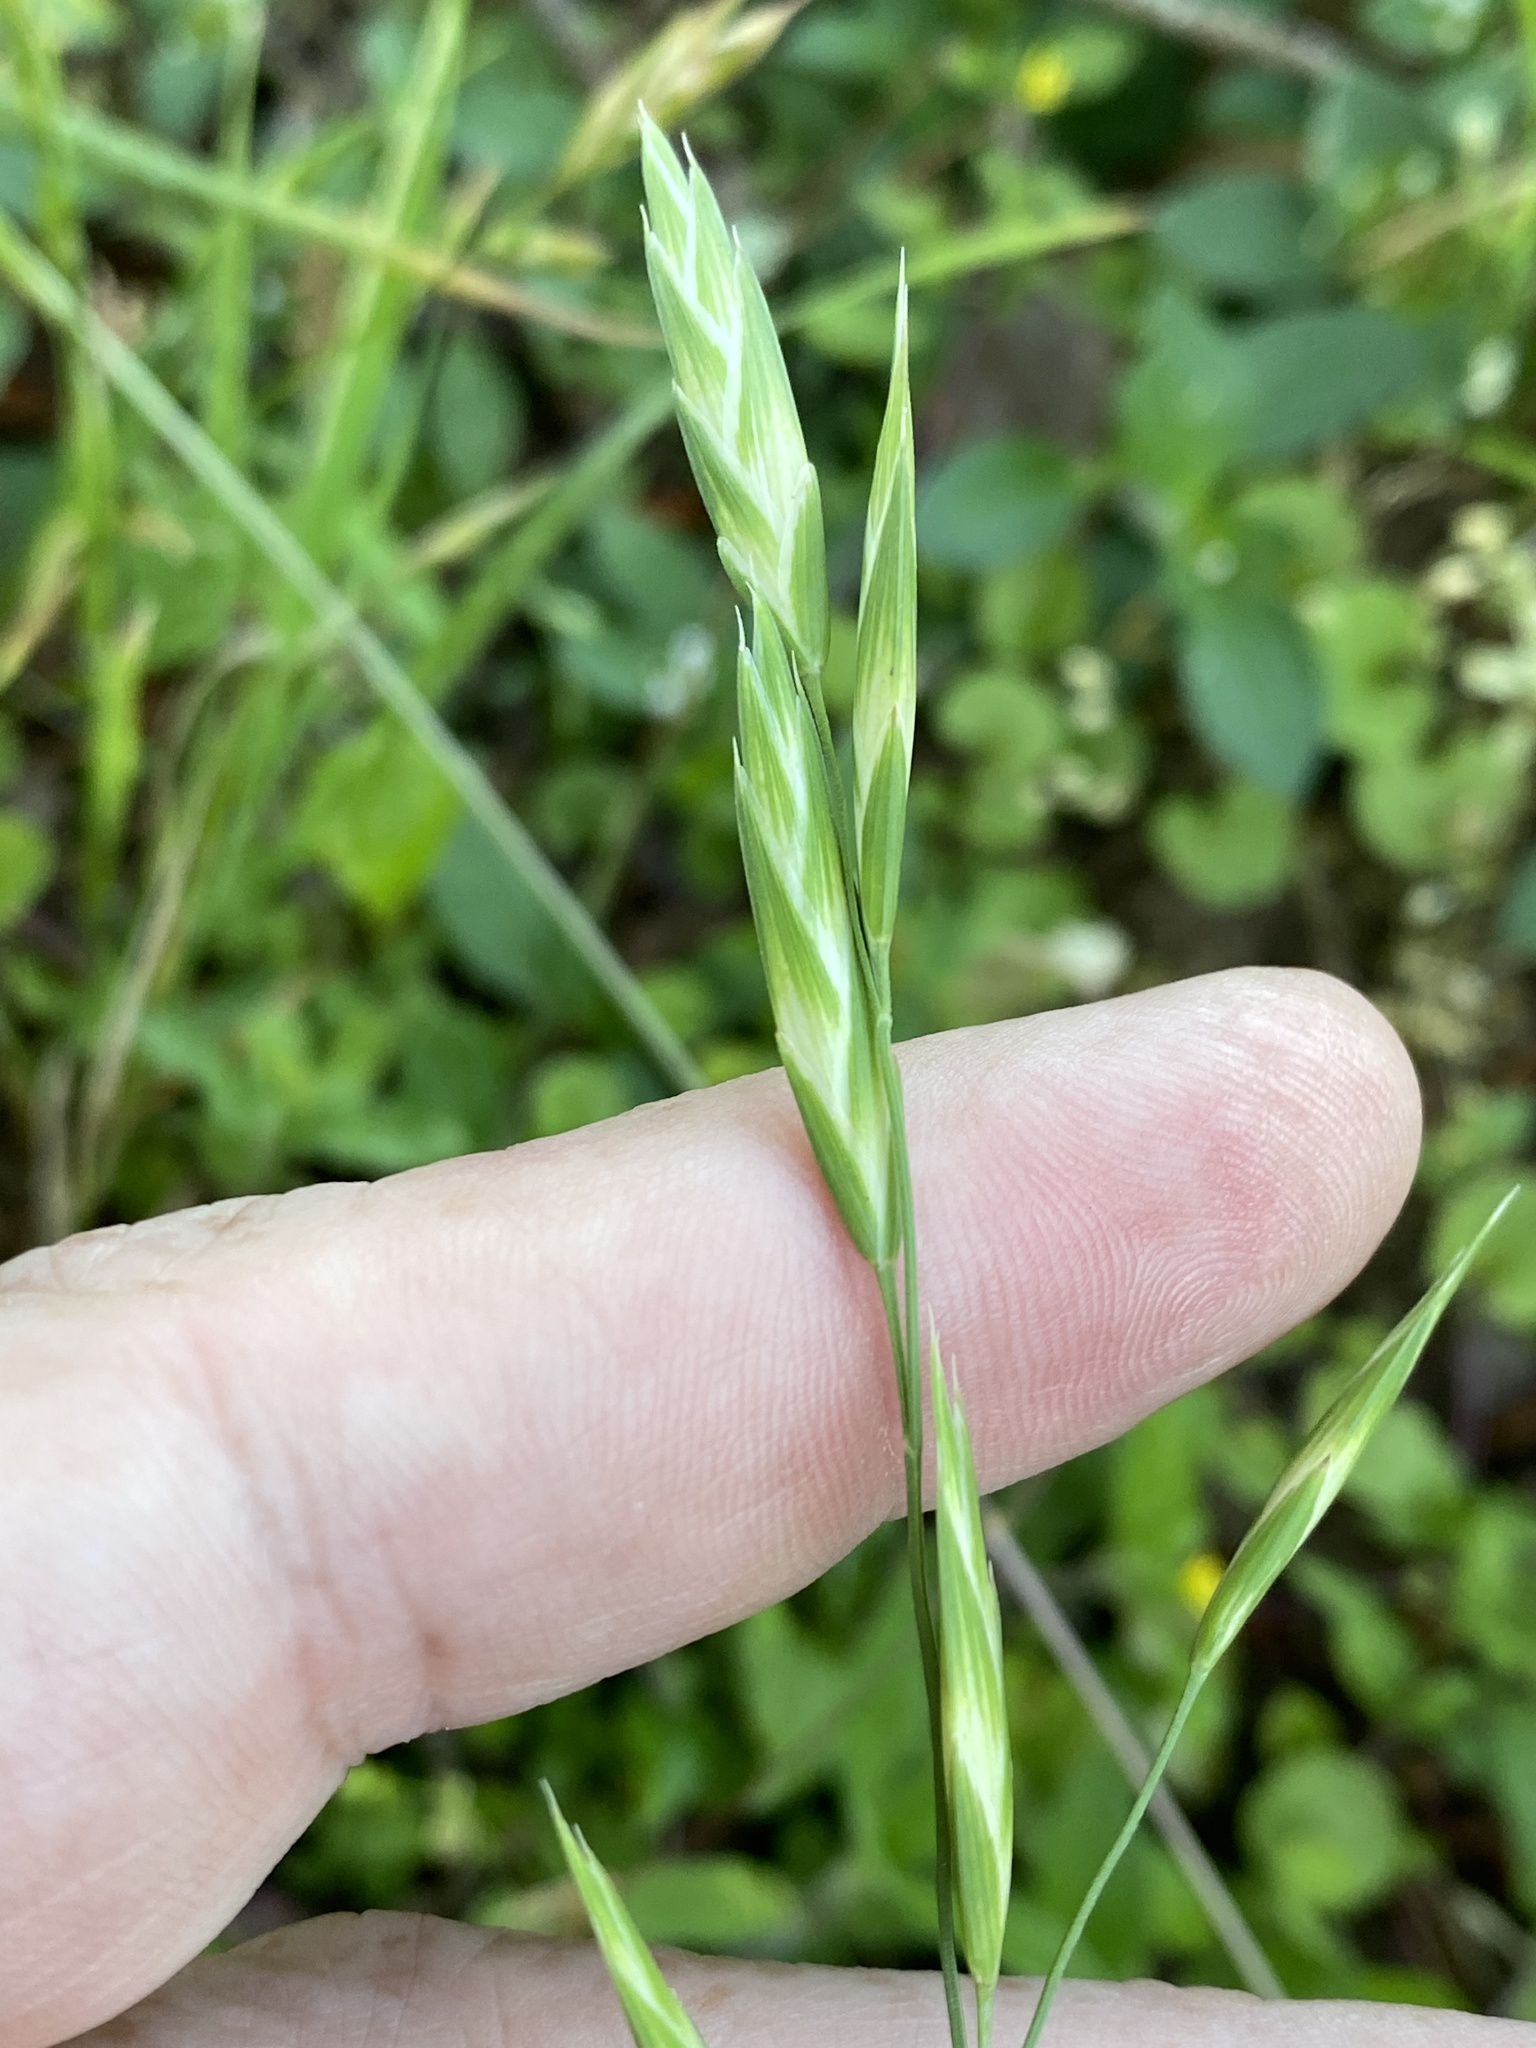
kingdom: Plantae
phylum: Tracheophyta
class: Liliopsida
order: Poales
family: Poaceae
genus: Bromus
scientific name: Bromus catharticus
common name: Rescuegrass
